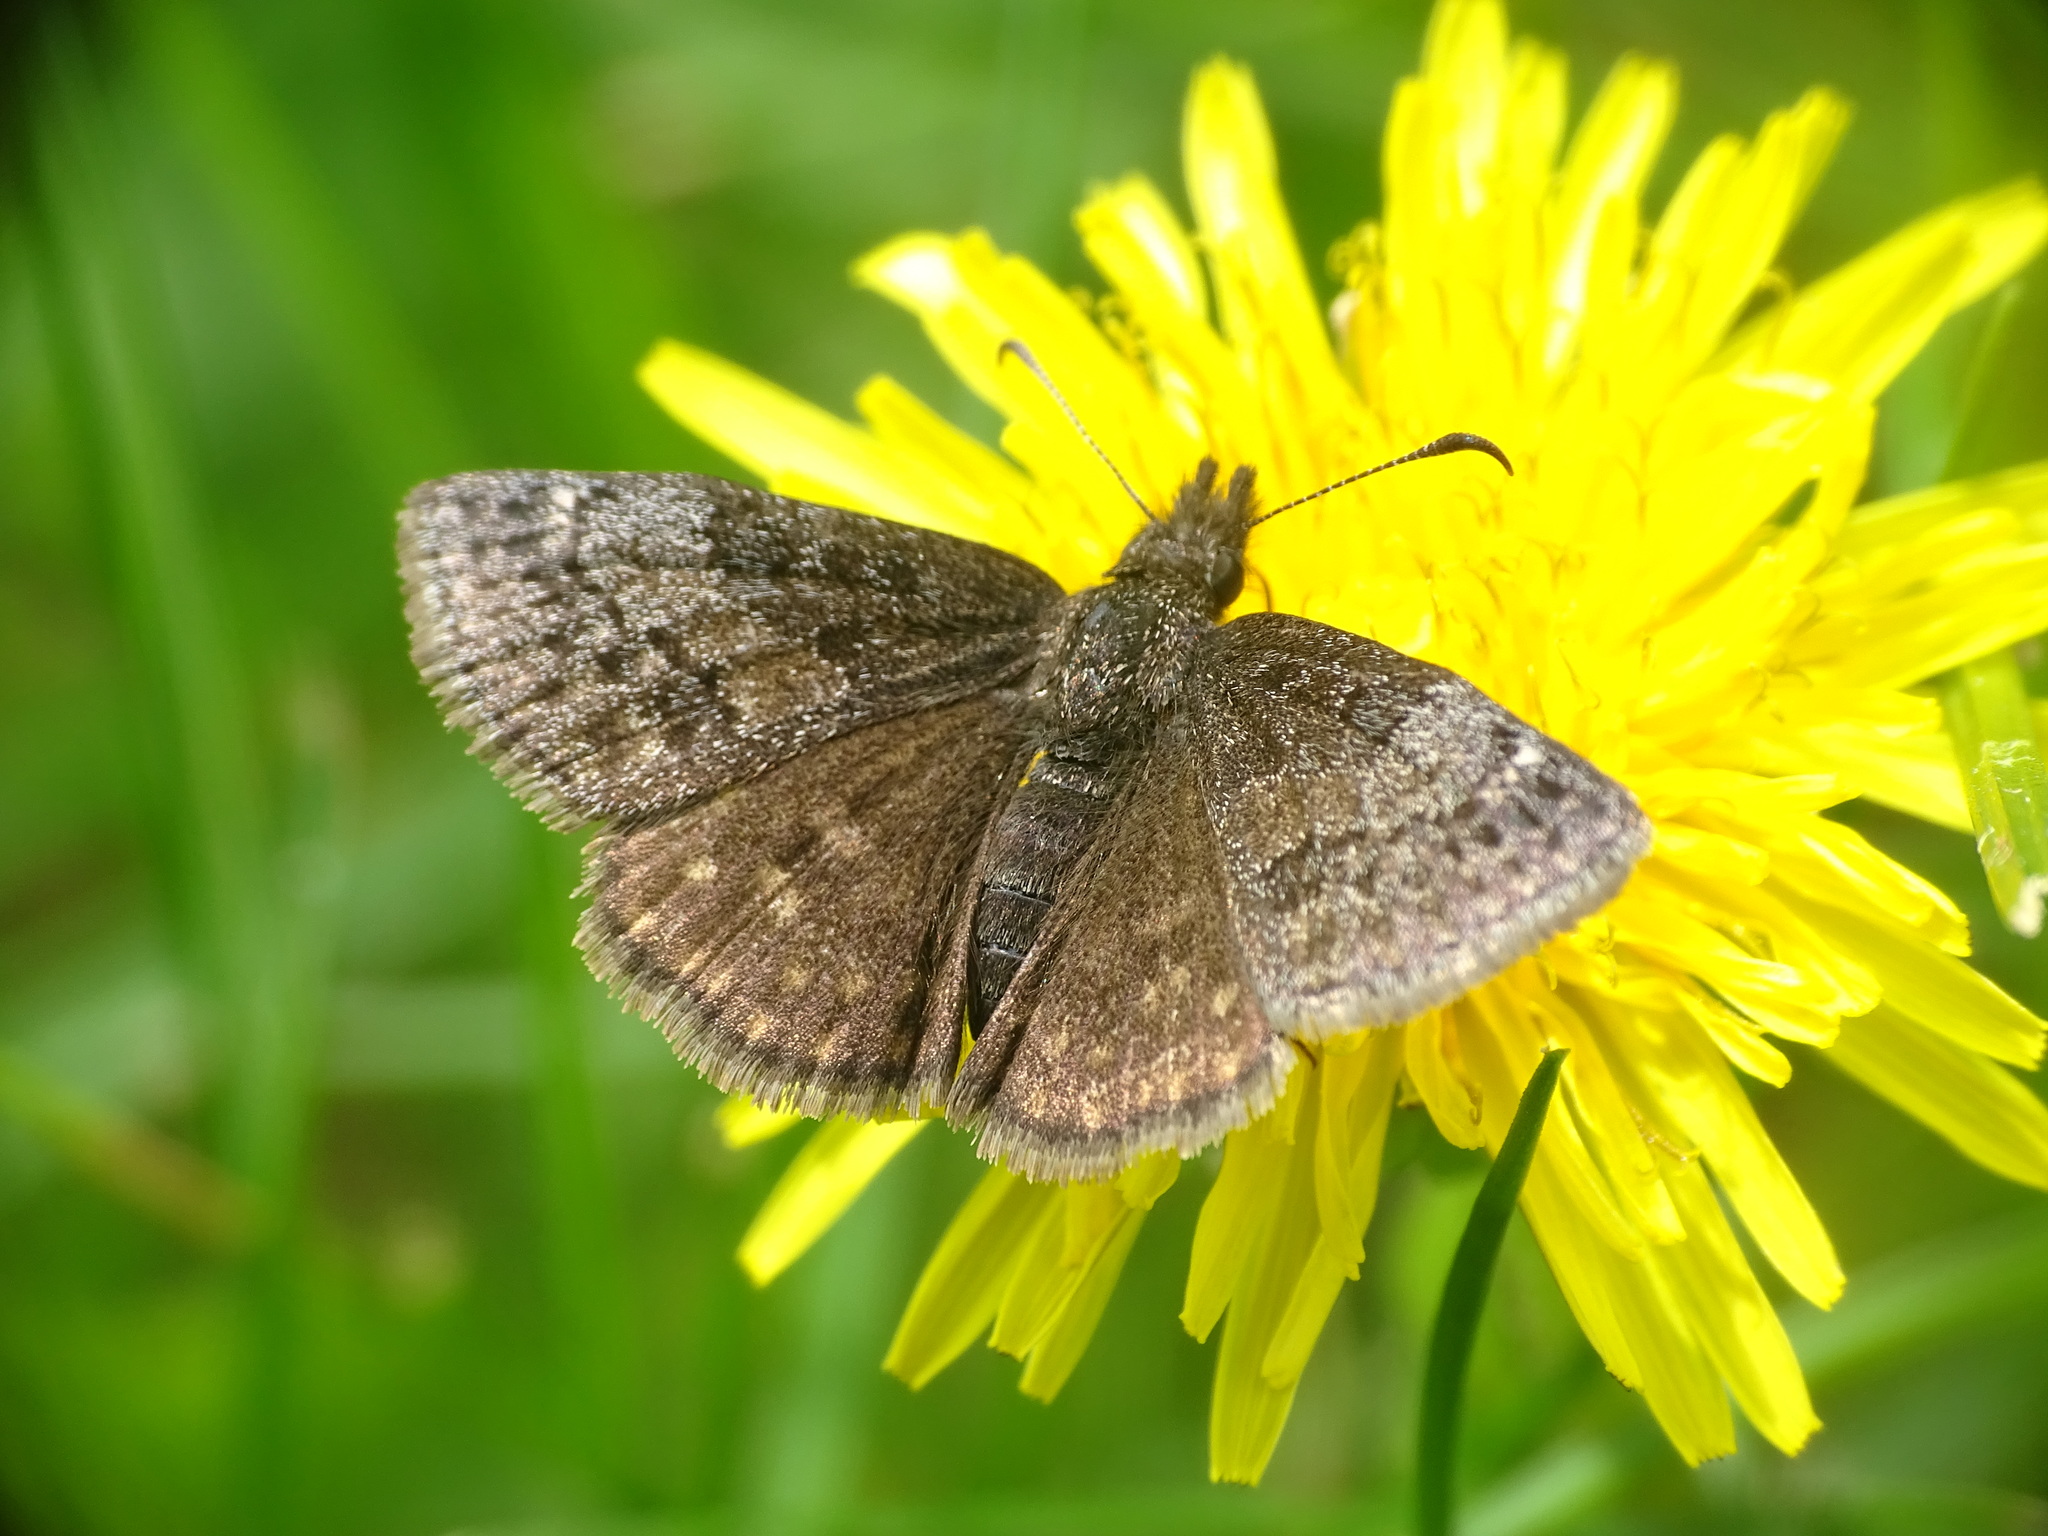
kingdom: Animalia
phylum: Arthropoda
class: Insecta
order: Lepidoptera
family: Hesperiidae
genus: Erynnis
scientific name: Erynnis icelus
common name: Dreamy duskywing
